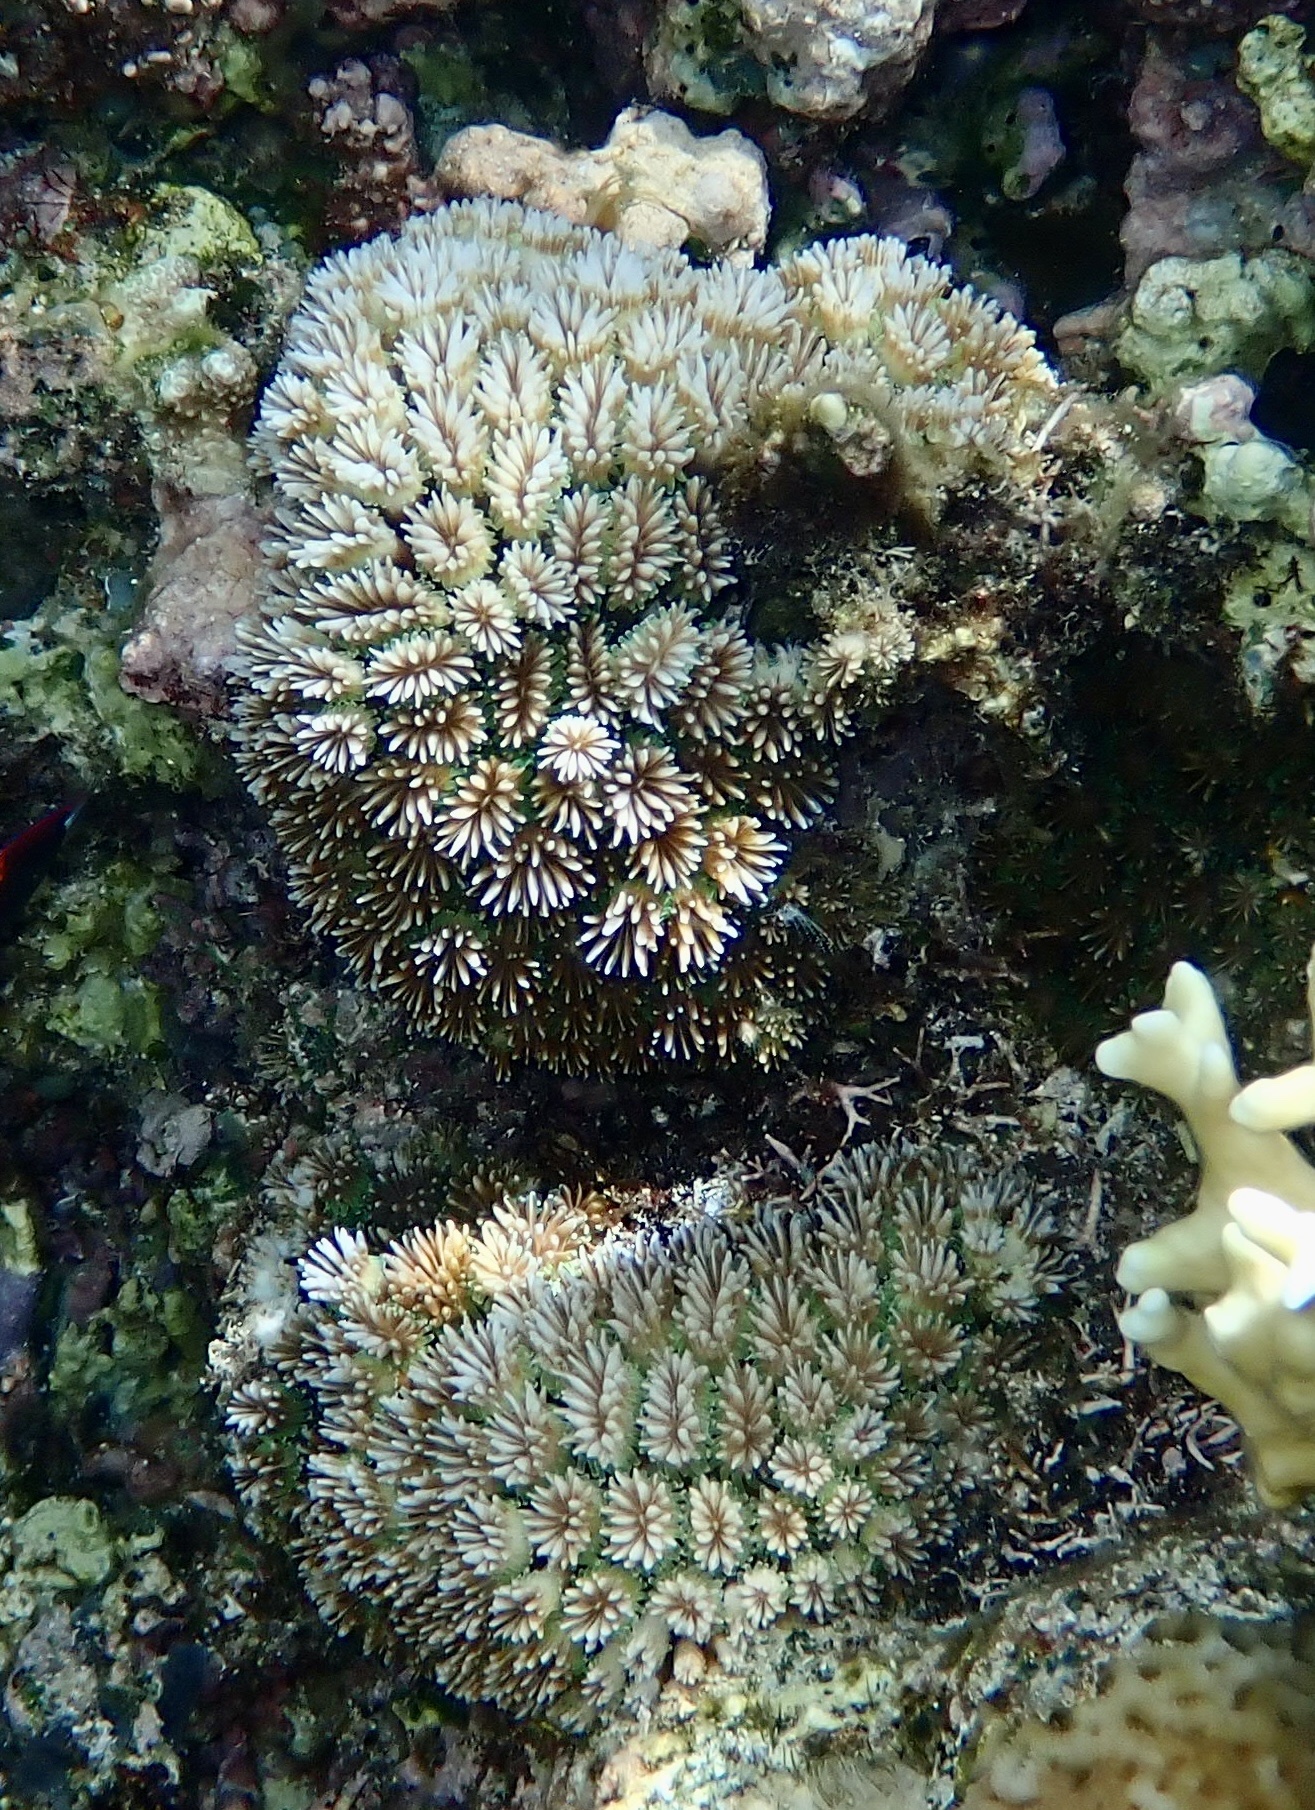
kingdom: Animalia
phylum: Cnidaria
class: Anthozoa
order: Scleractinia
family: Euphylliidae
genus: Galaxea
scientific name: Galaxea fascicularis
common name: Octopus coral
